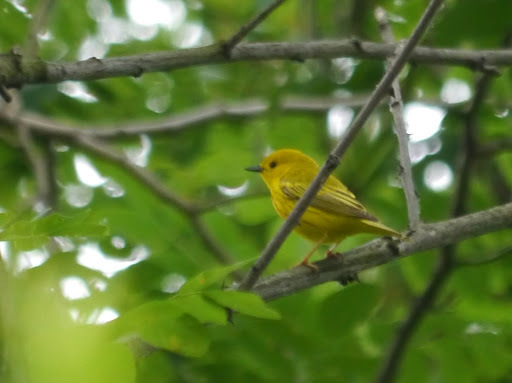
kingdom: Animalia
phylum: Chordata
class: Aves
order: Passeriformes
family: Parulidae
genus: Setophaga
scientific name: Setophaga petechia
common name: Yellow warbler
